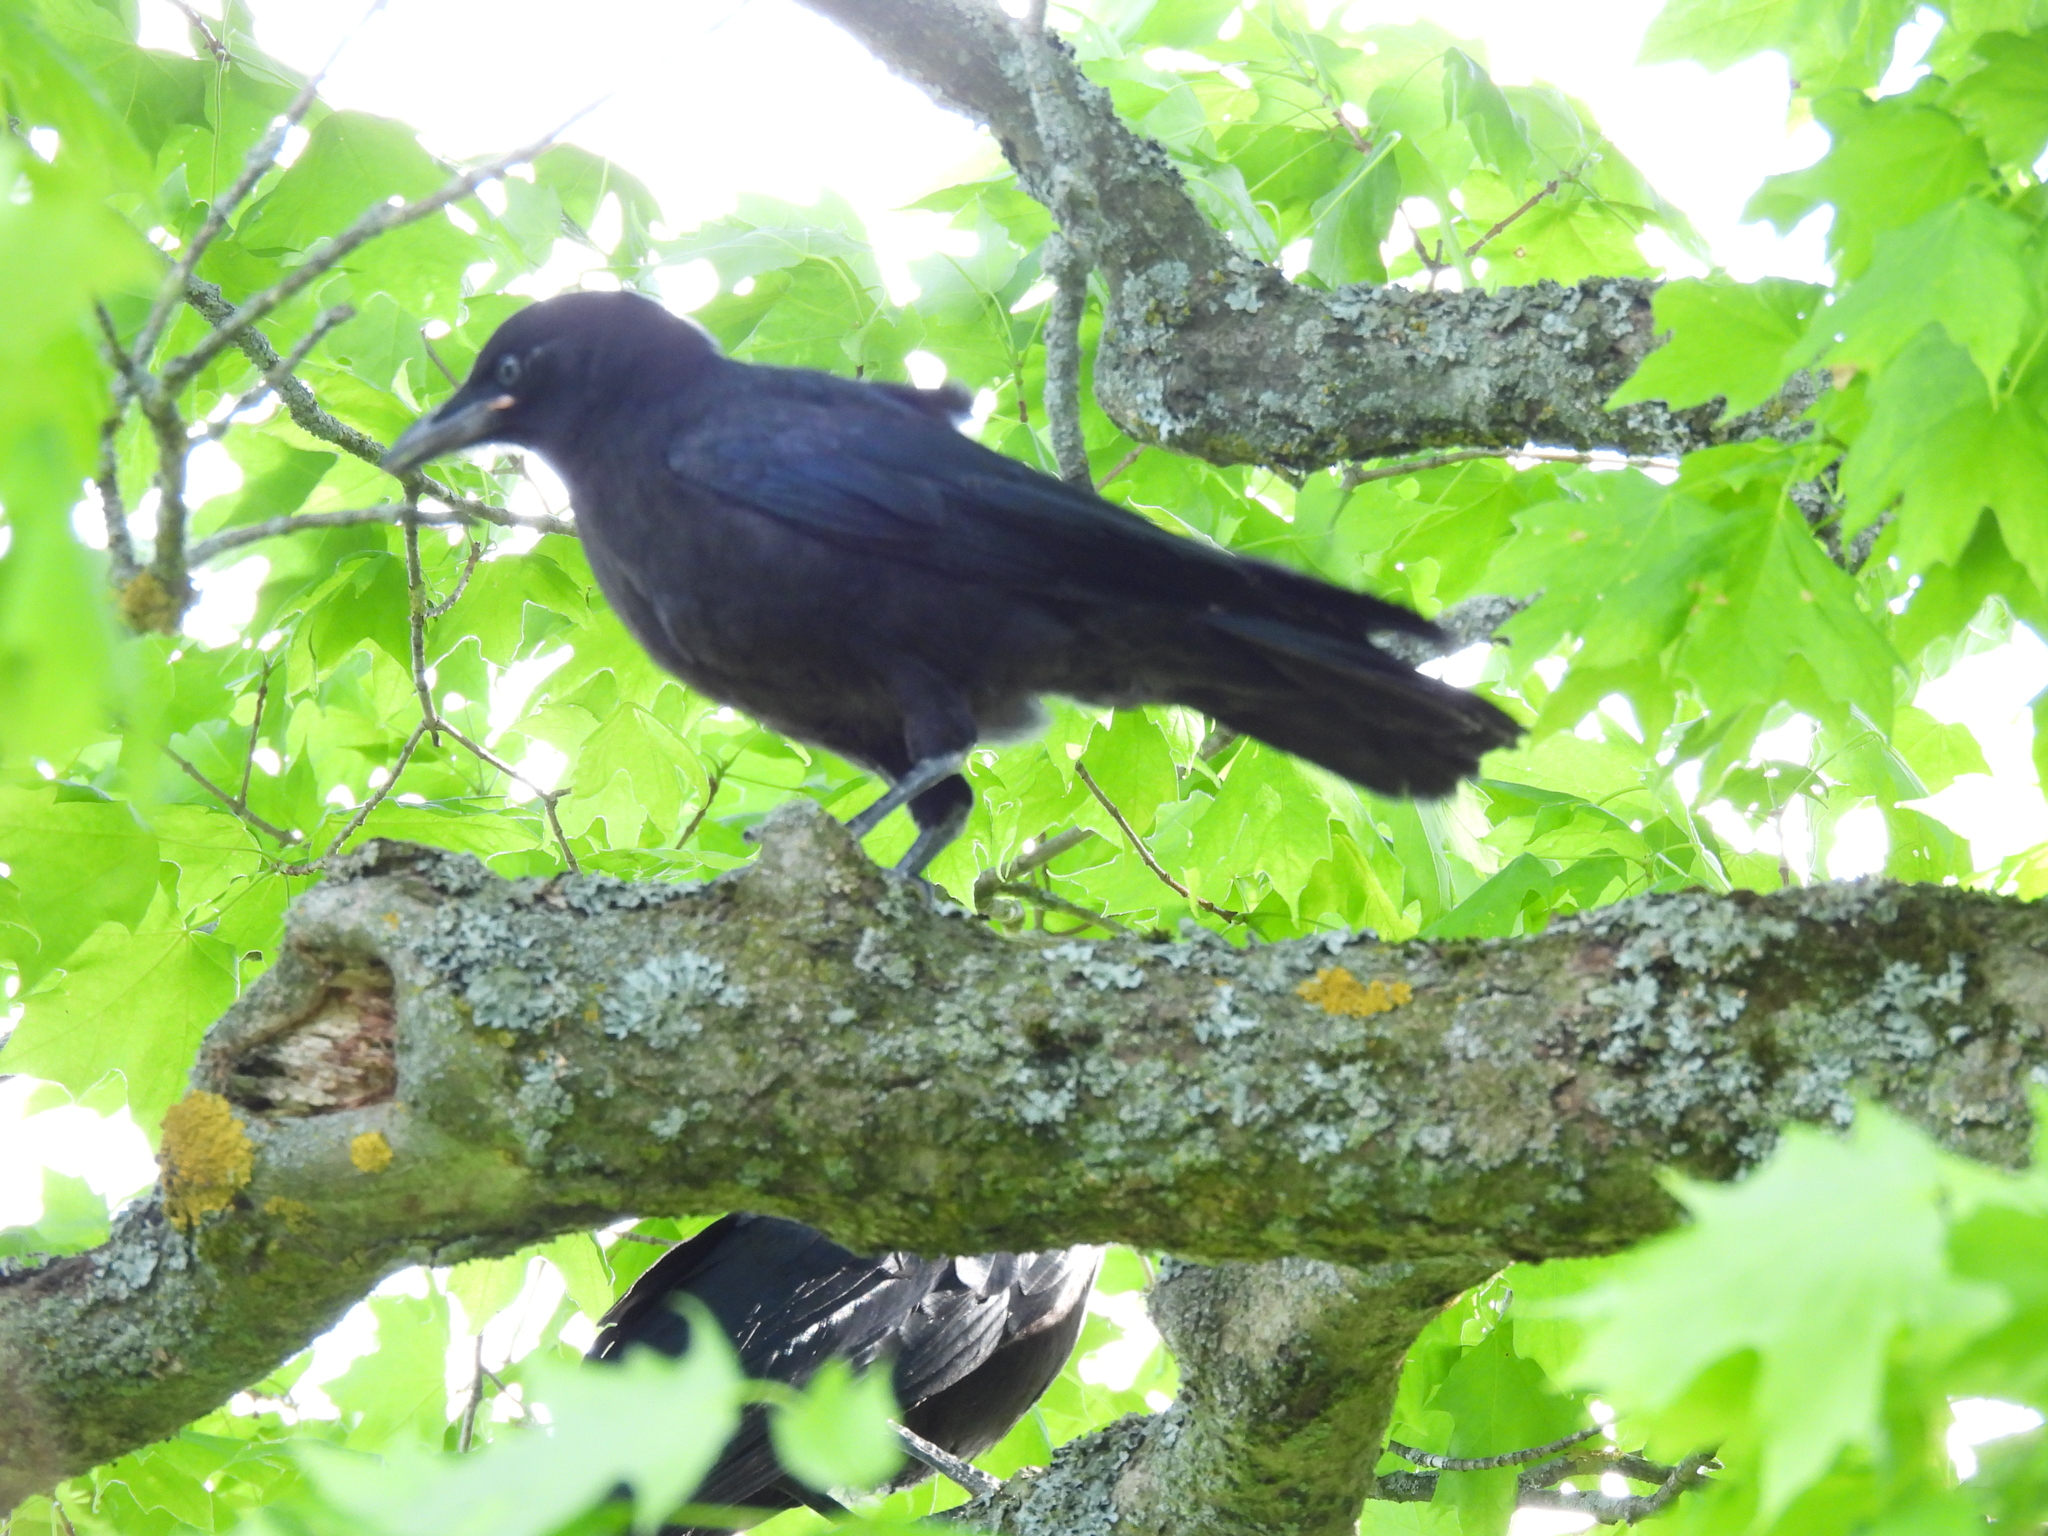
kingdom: Animalia
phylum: Chordata
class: Aves
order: Passeriformes
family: Corvidae
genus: Corvus
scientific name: Corvus brachyrhynchos
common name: American crow
